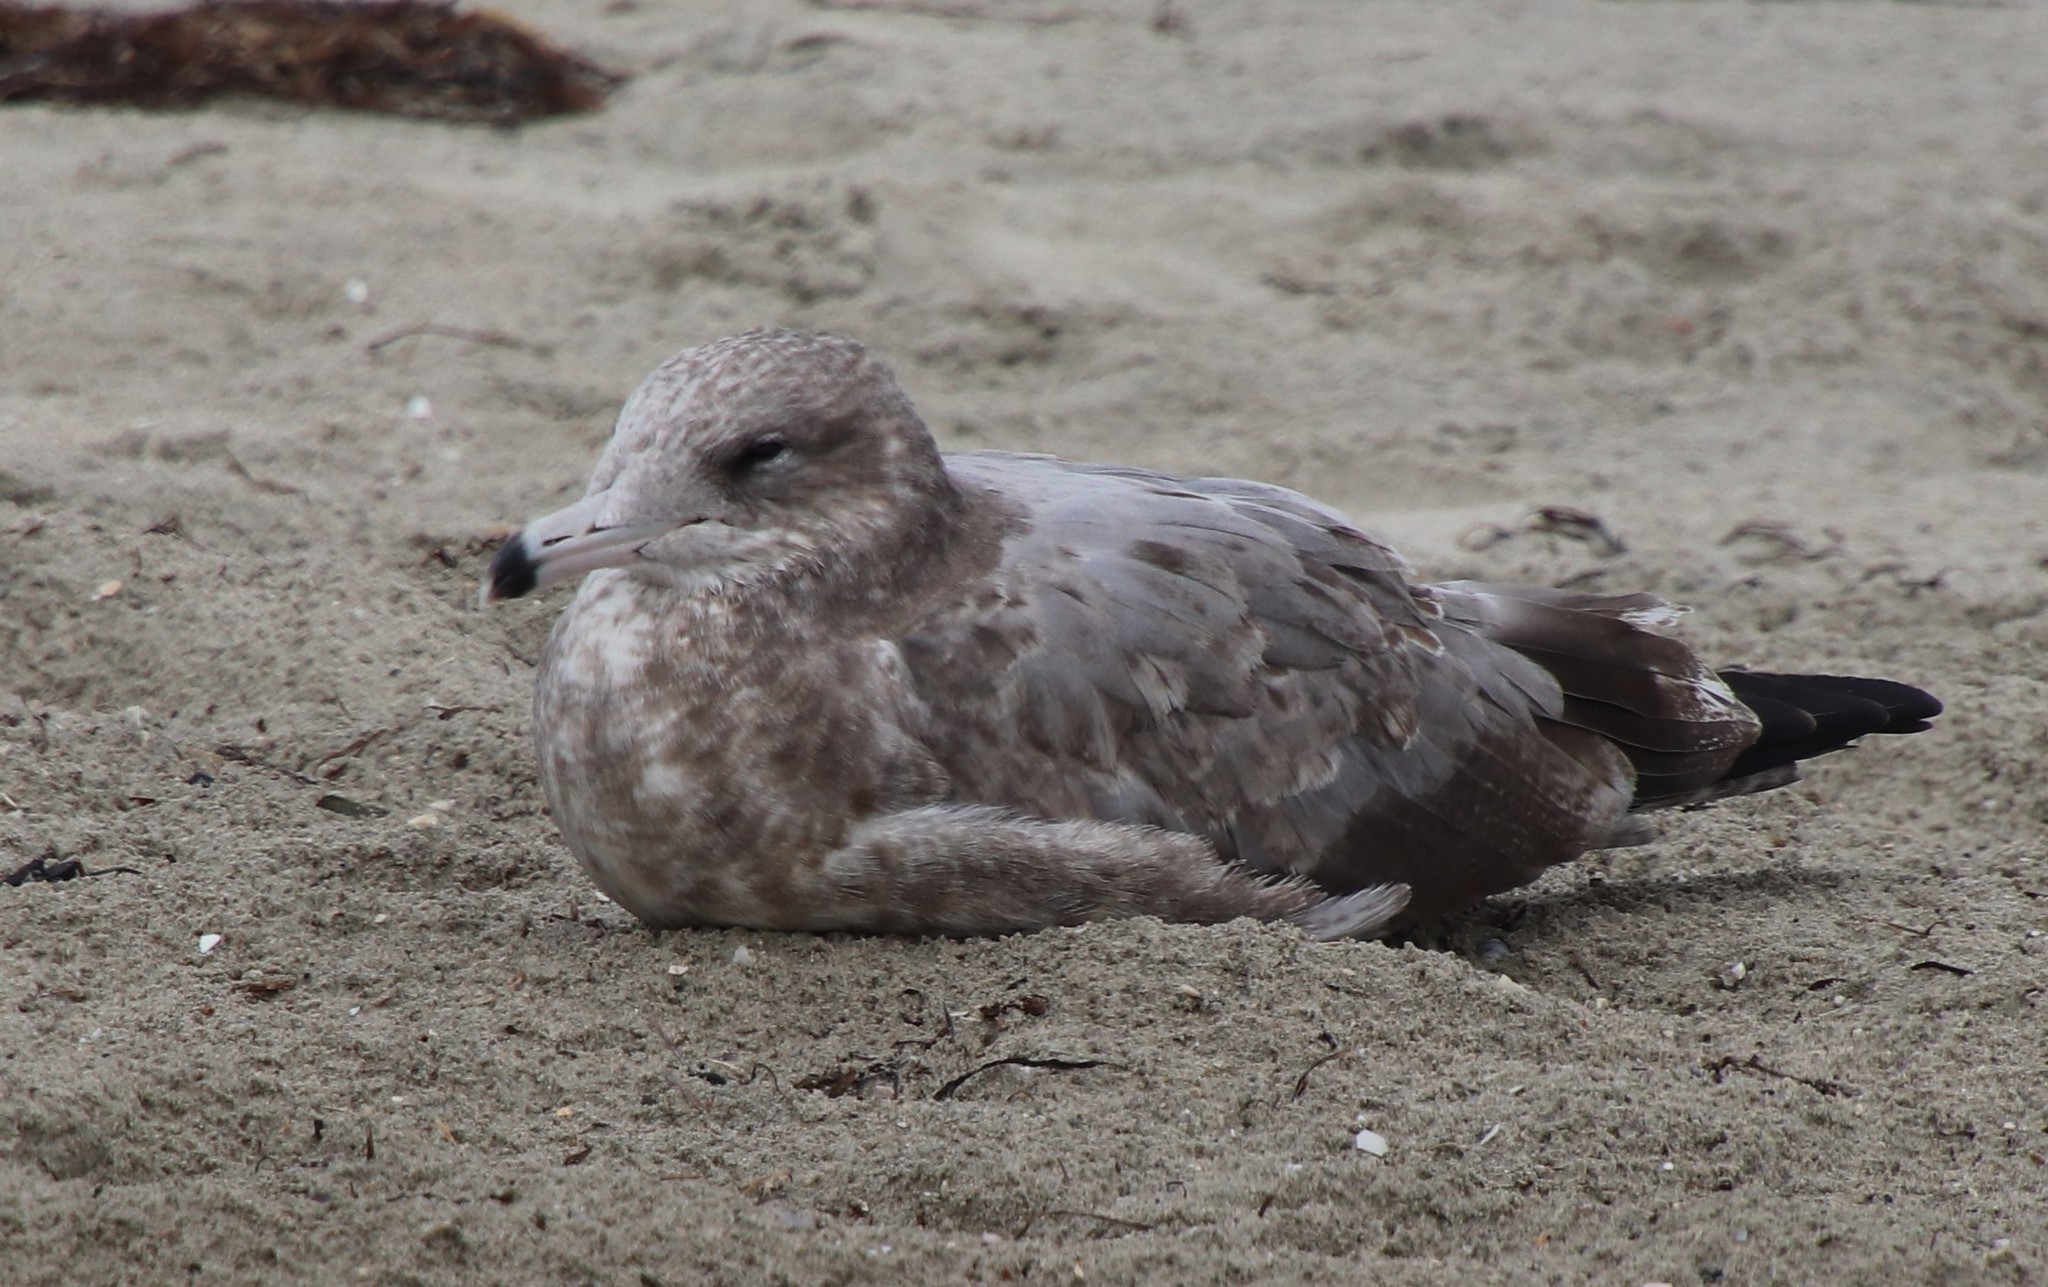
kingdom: Animalia
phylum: Chordata
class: Aves
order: Charadriiformes
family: Laridae
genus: Larus
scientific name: Larus californicus
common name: California gull
